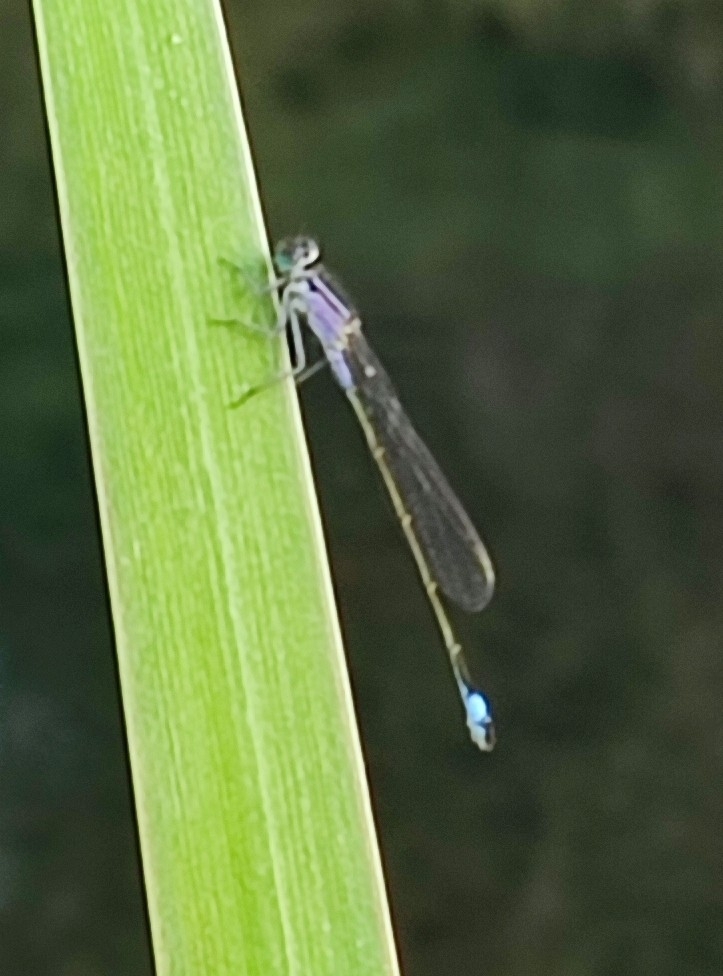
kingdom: Animalia
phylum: Arthropoda
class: Insecta
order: Odonata
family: Coenagrionidae
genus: Ischnura
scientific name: Ischnura elegans
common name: Blue-tailed damselfly
